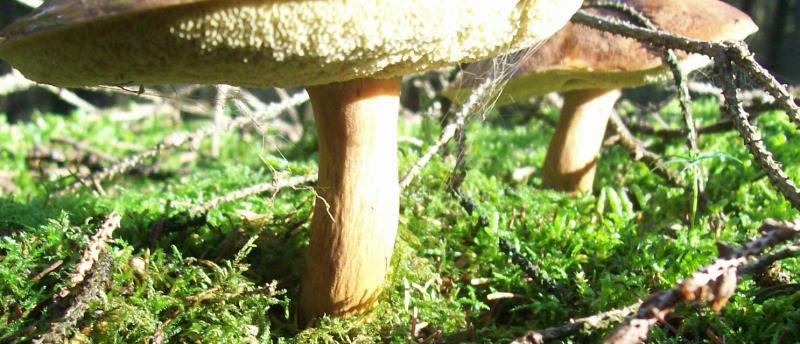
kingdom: Fungi
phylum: Basidiomycota
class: Agaricomycetes
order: Boletales
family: Boletaceae
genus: Imleria
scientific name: Imleria badia
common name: Bay bolete
